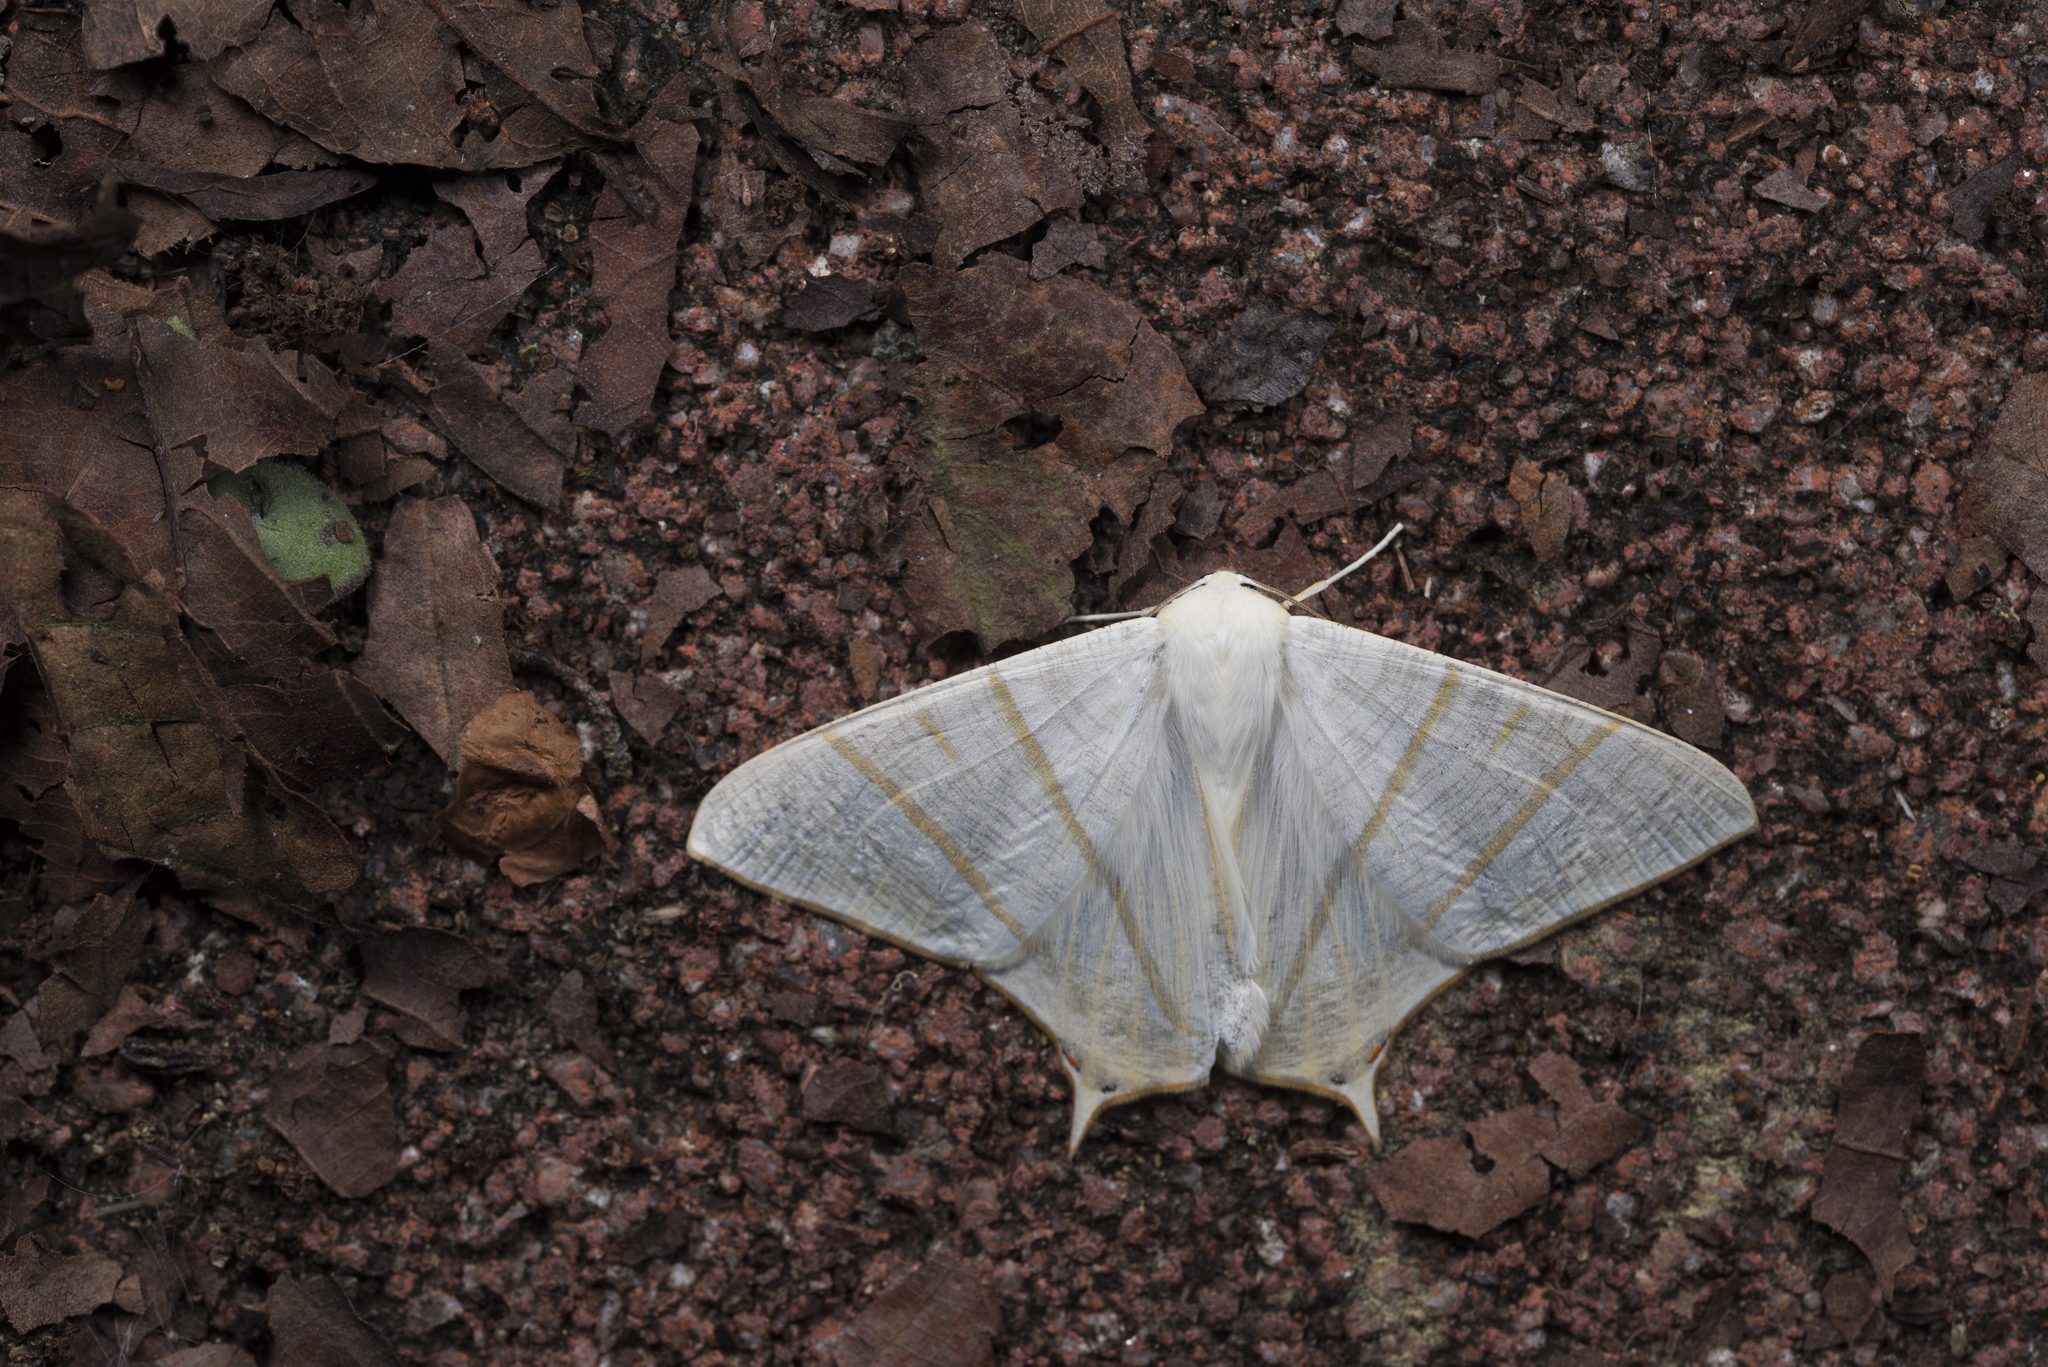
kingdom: Animalia
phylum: Arthropoda
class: Insecta
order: Lepidoptera
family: Geometridae
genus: Ourapteryx
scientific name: Ourapteryx changi
